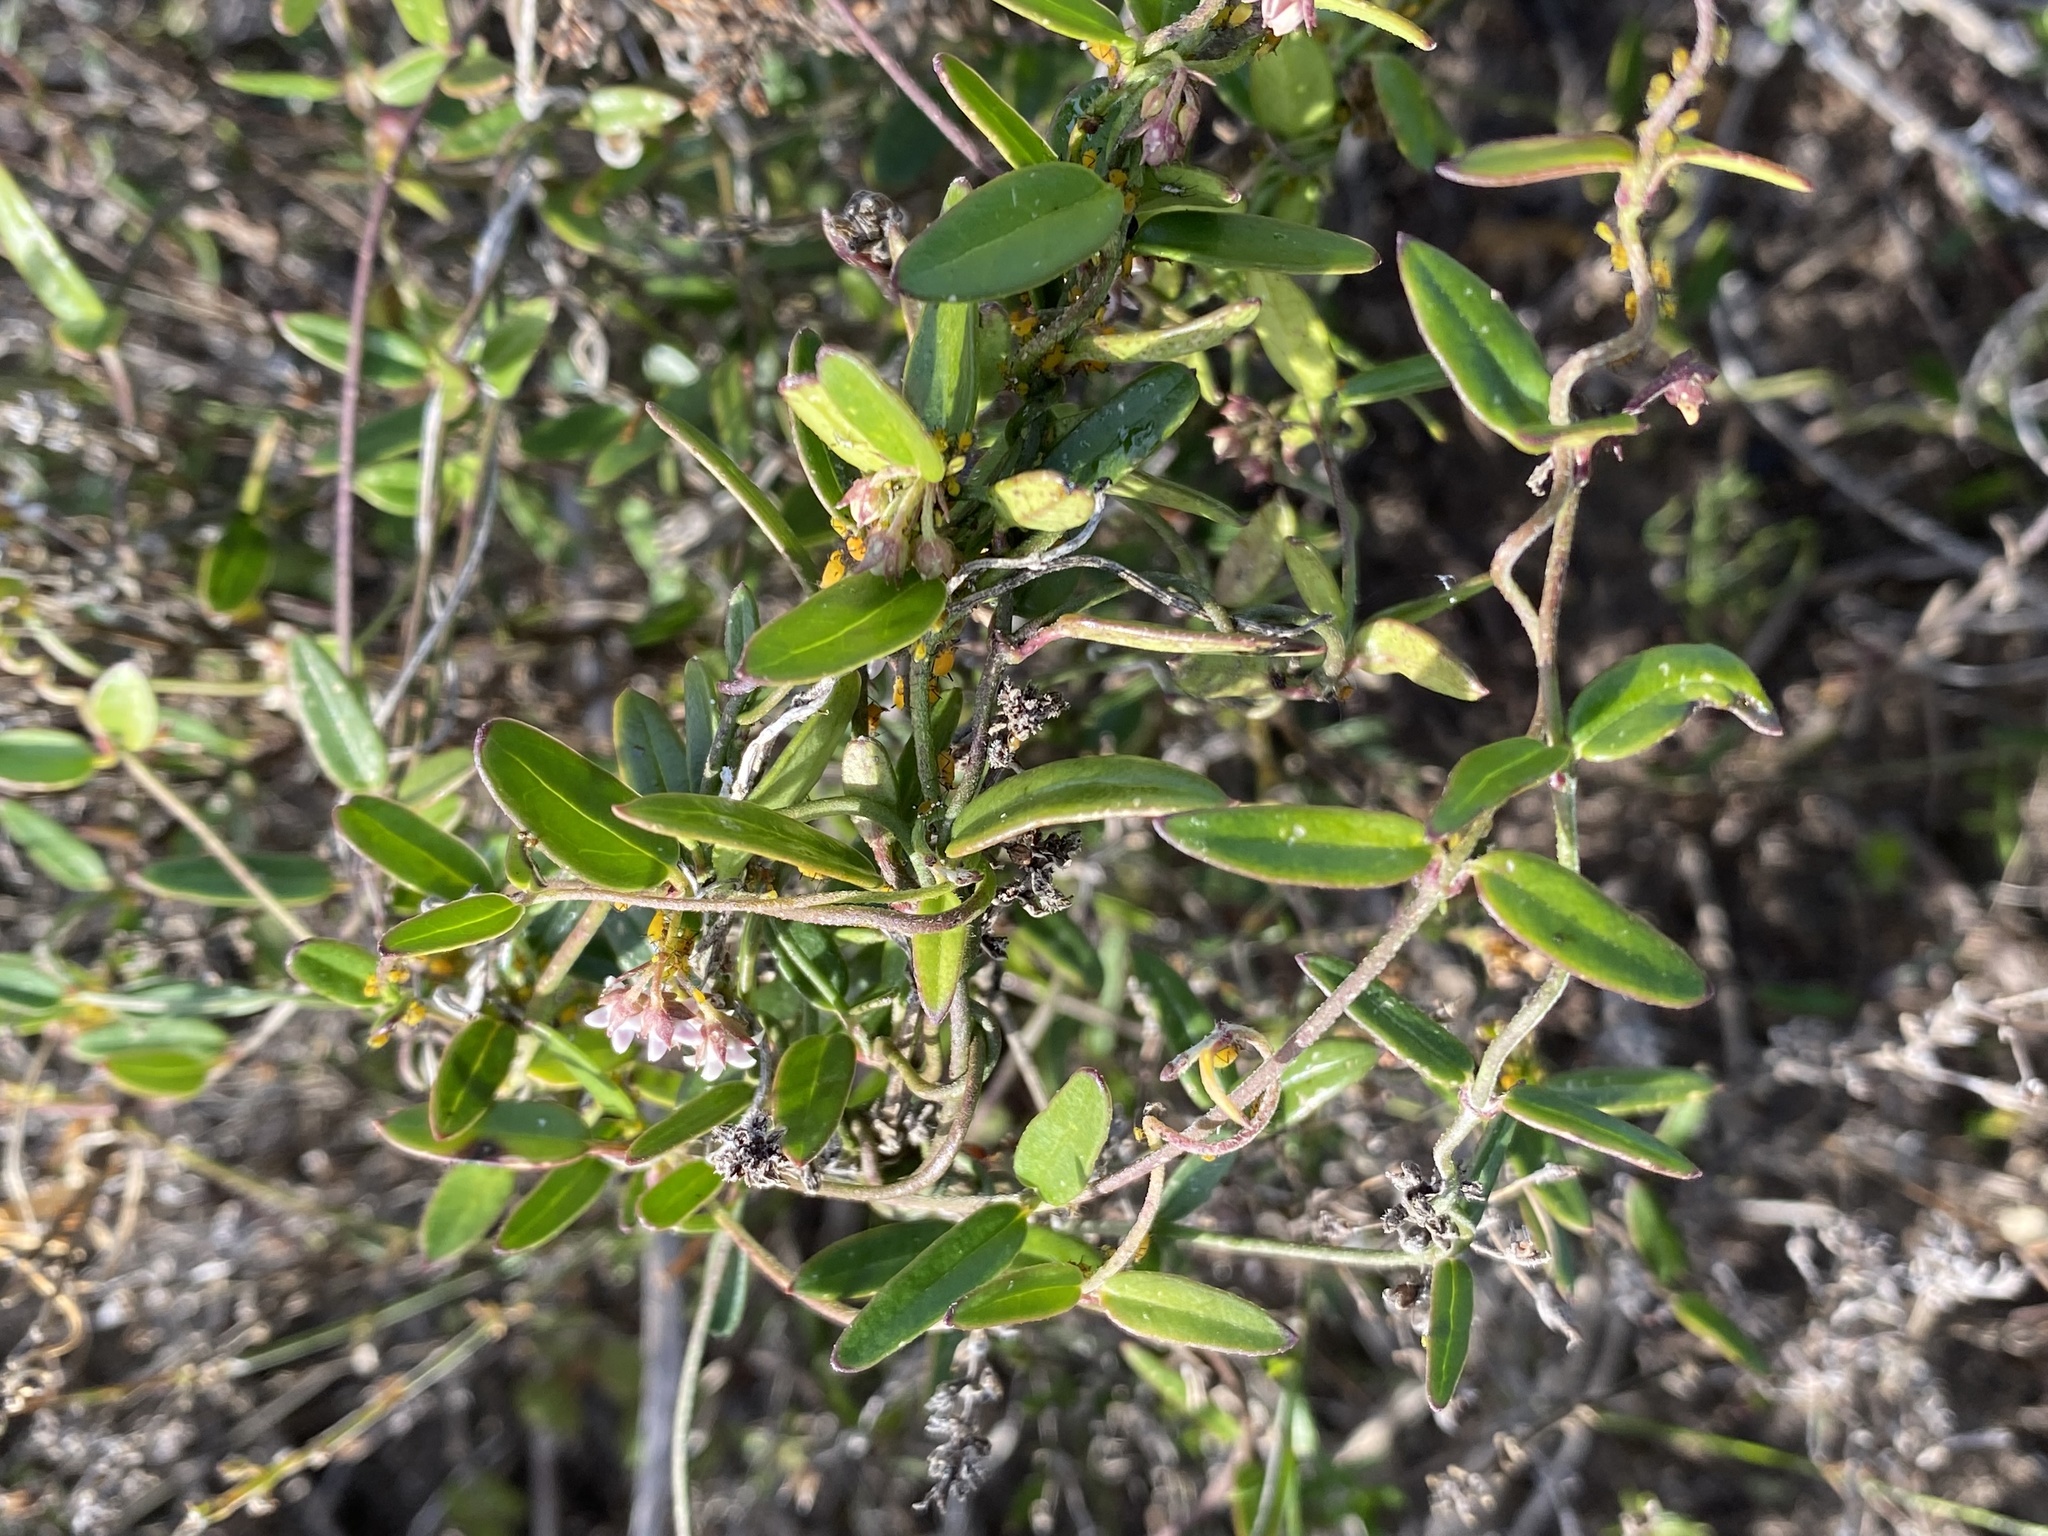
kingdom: Plantae
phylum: Tracheophyta
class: Magnoliopsida
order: Gentianales
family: Apocynaceae
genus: Astephanus
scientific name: Astephanus triflorus
